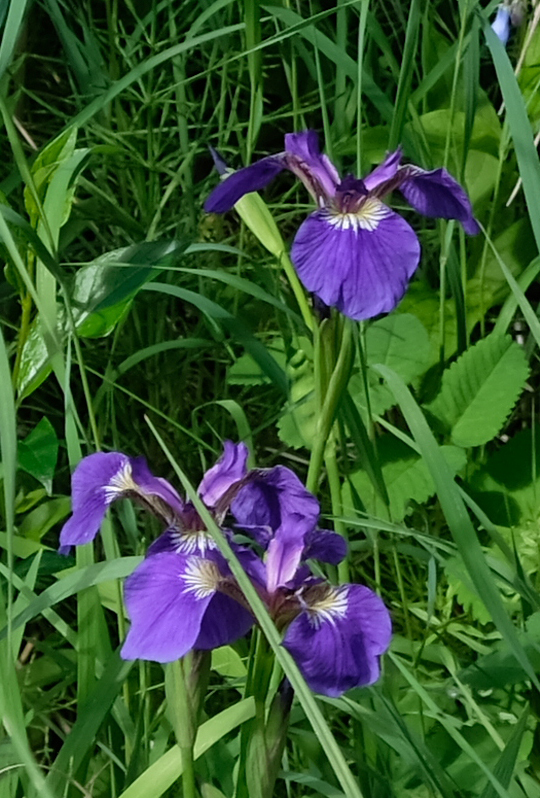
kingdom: Plantae
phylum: Tracheophyta
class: Liliopsida
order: Asparagales
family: Iridaceae
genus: Iris
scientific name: Iris setosa
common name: Arctic blue flag
